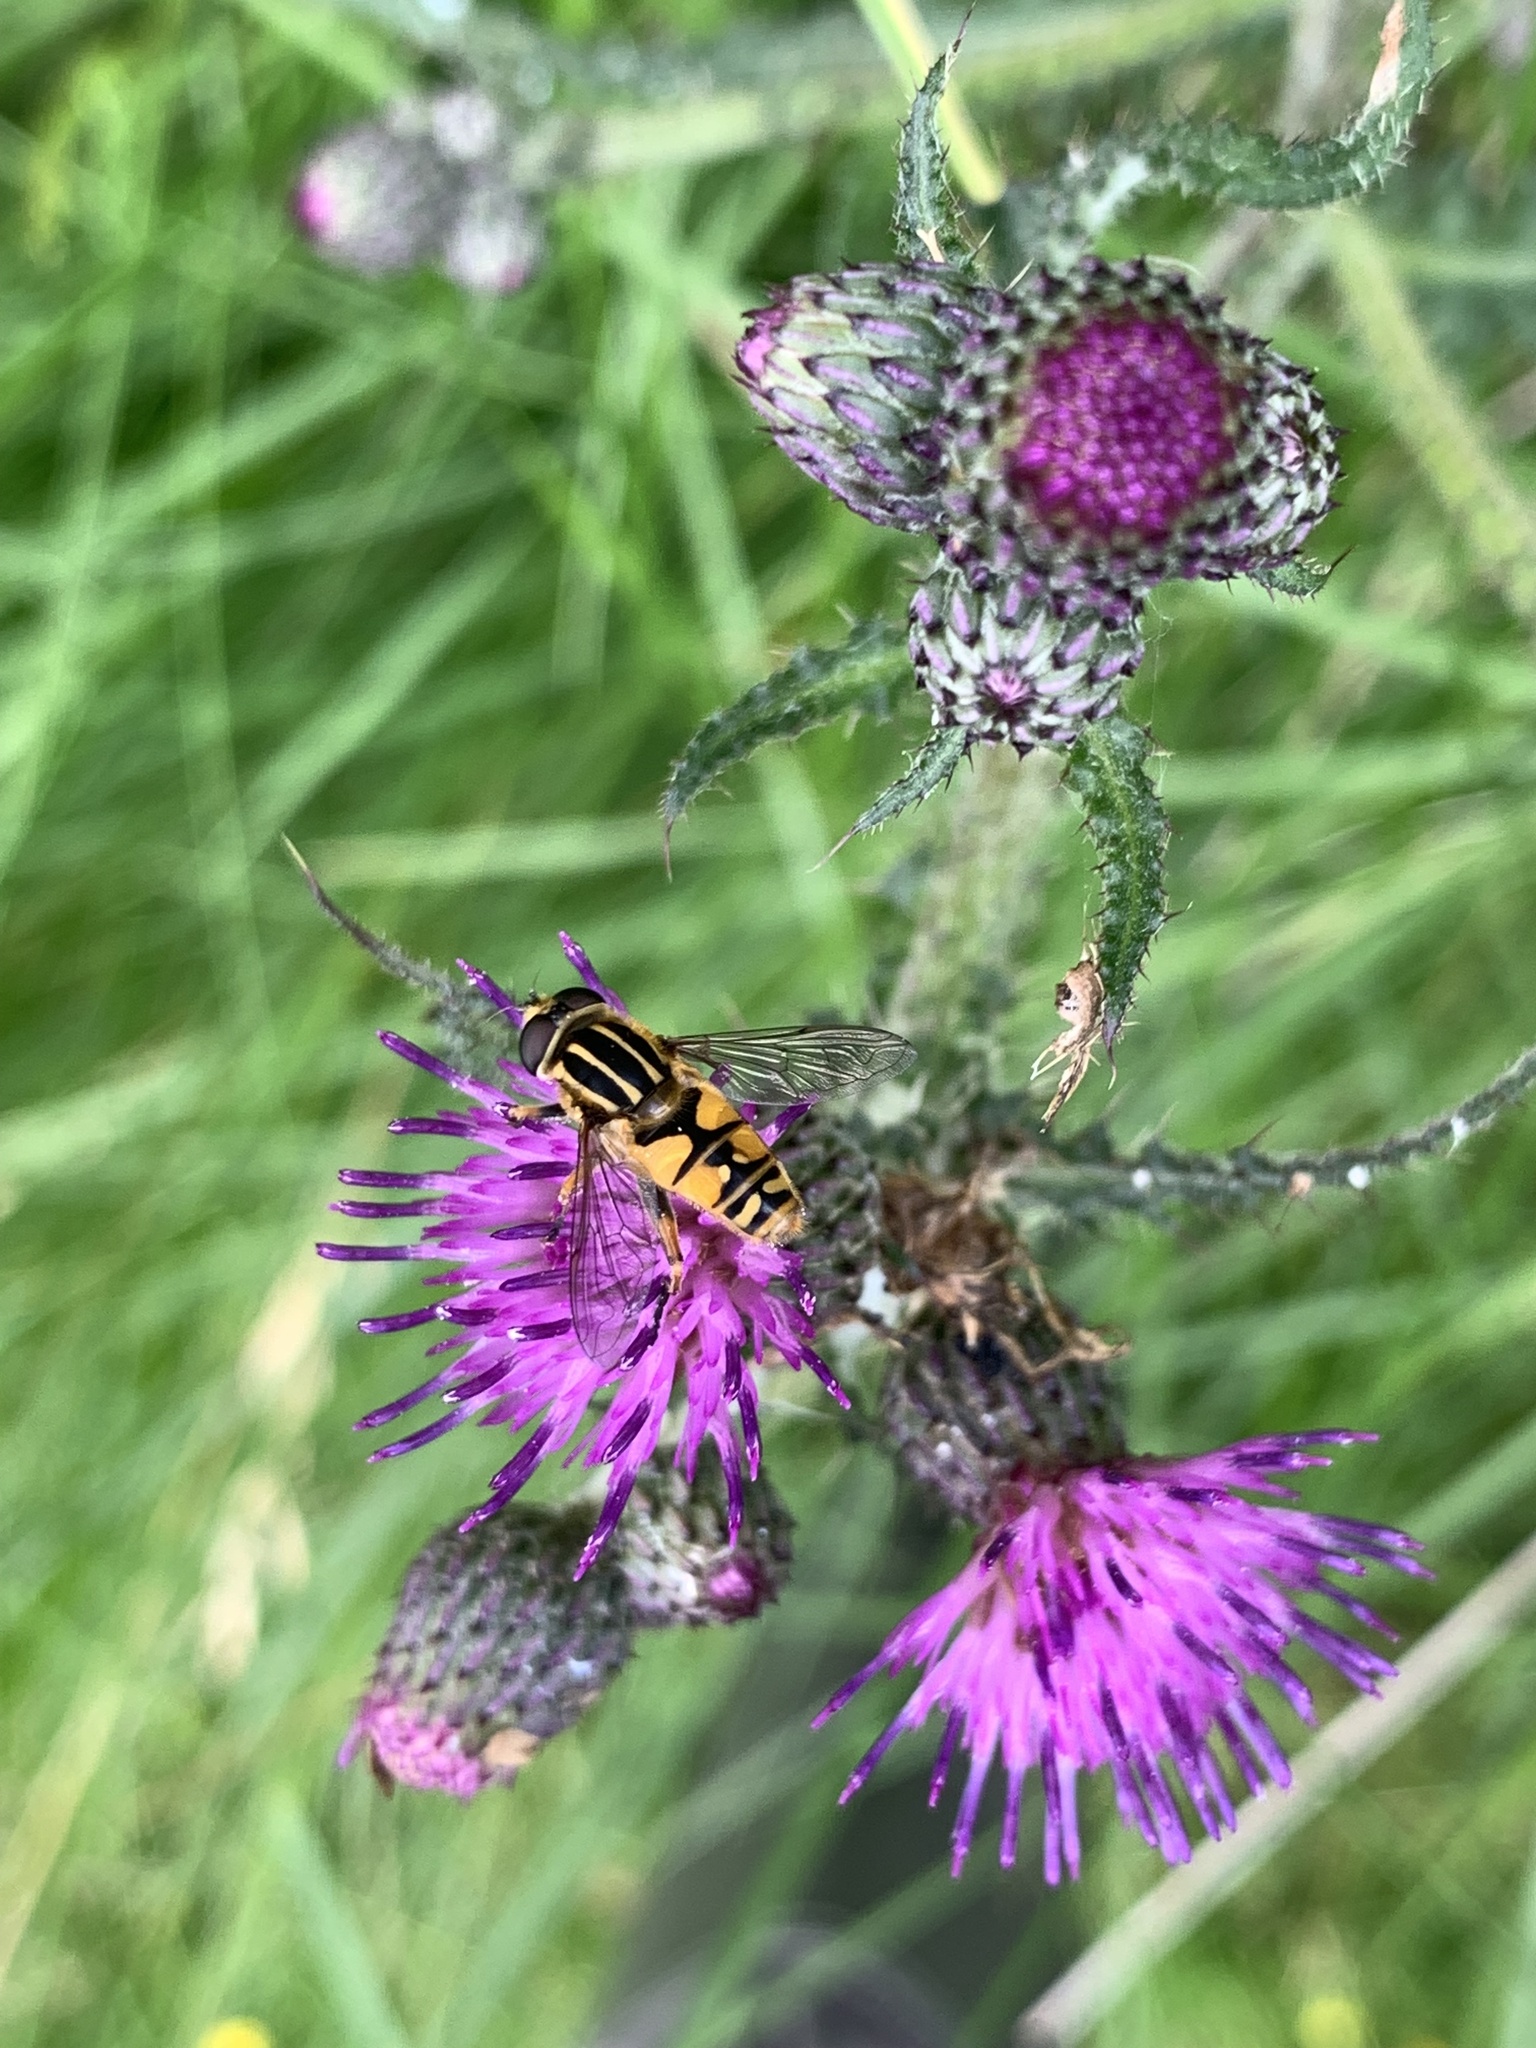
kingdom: Animalia
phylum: Arthropoda
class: Insecta
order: Diptera
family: Syrphidae
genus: Helophilus
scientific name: Helophilus pendulus
